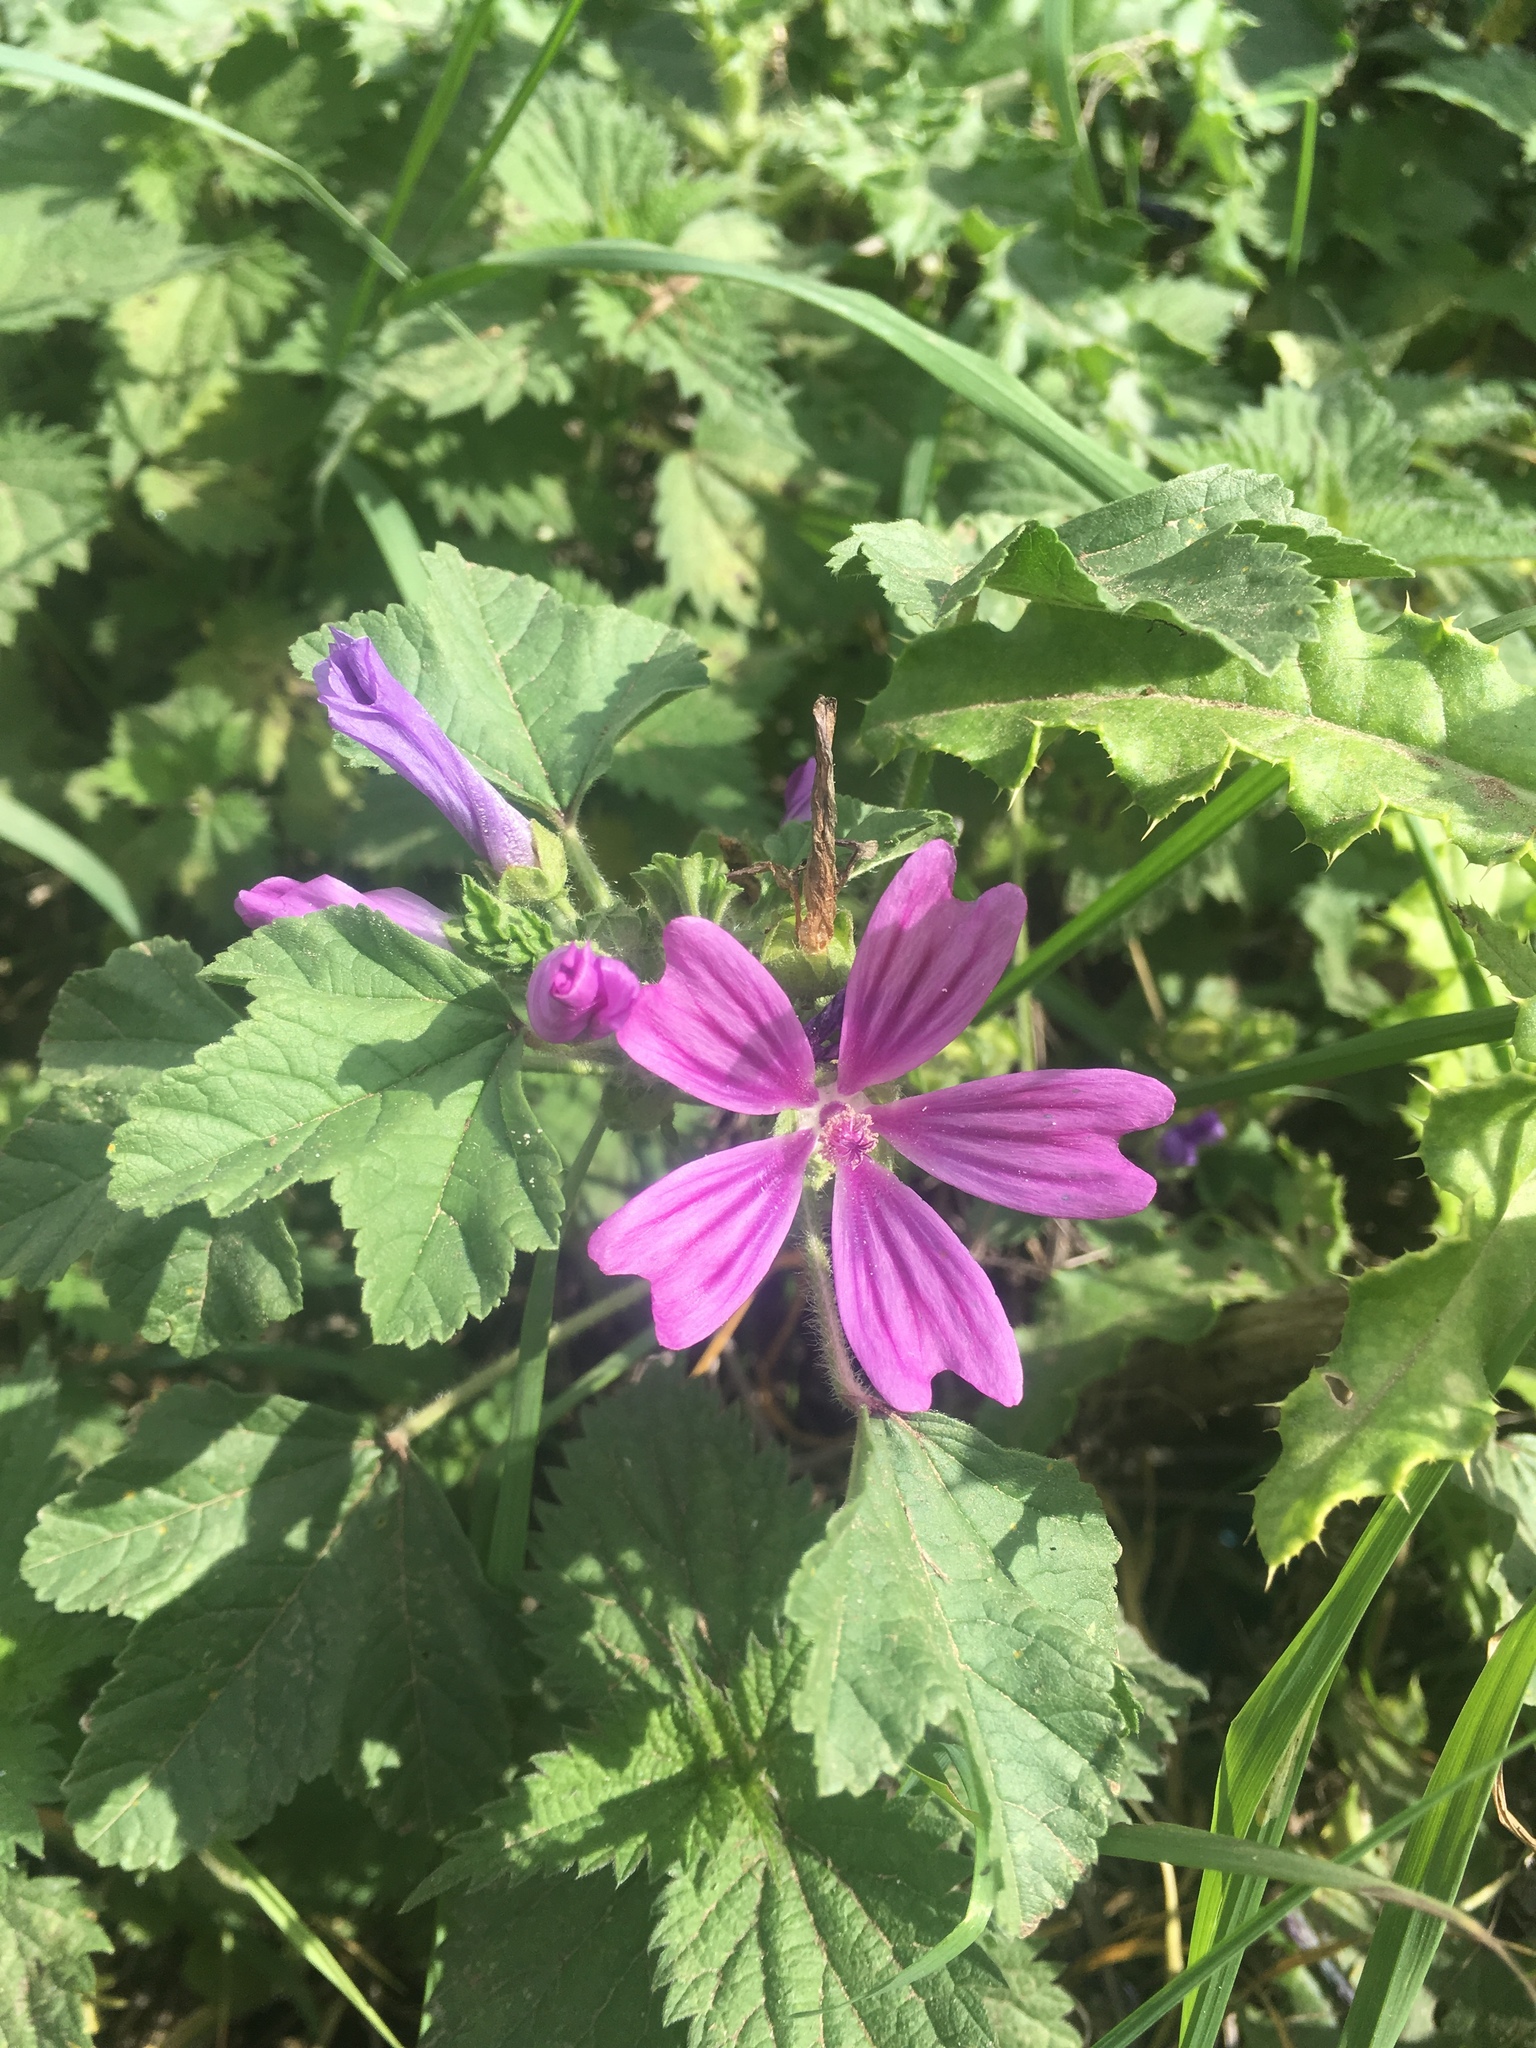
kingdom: Plantae
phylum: Tracheophyta
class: Magnoliopsida
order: Malvales
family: Malvaceae
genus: Malva
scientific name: Malva sylvestris
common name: Common mallow
